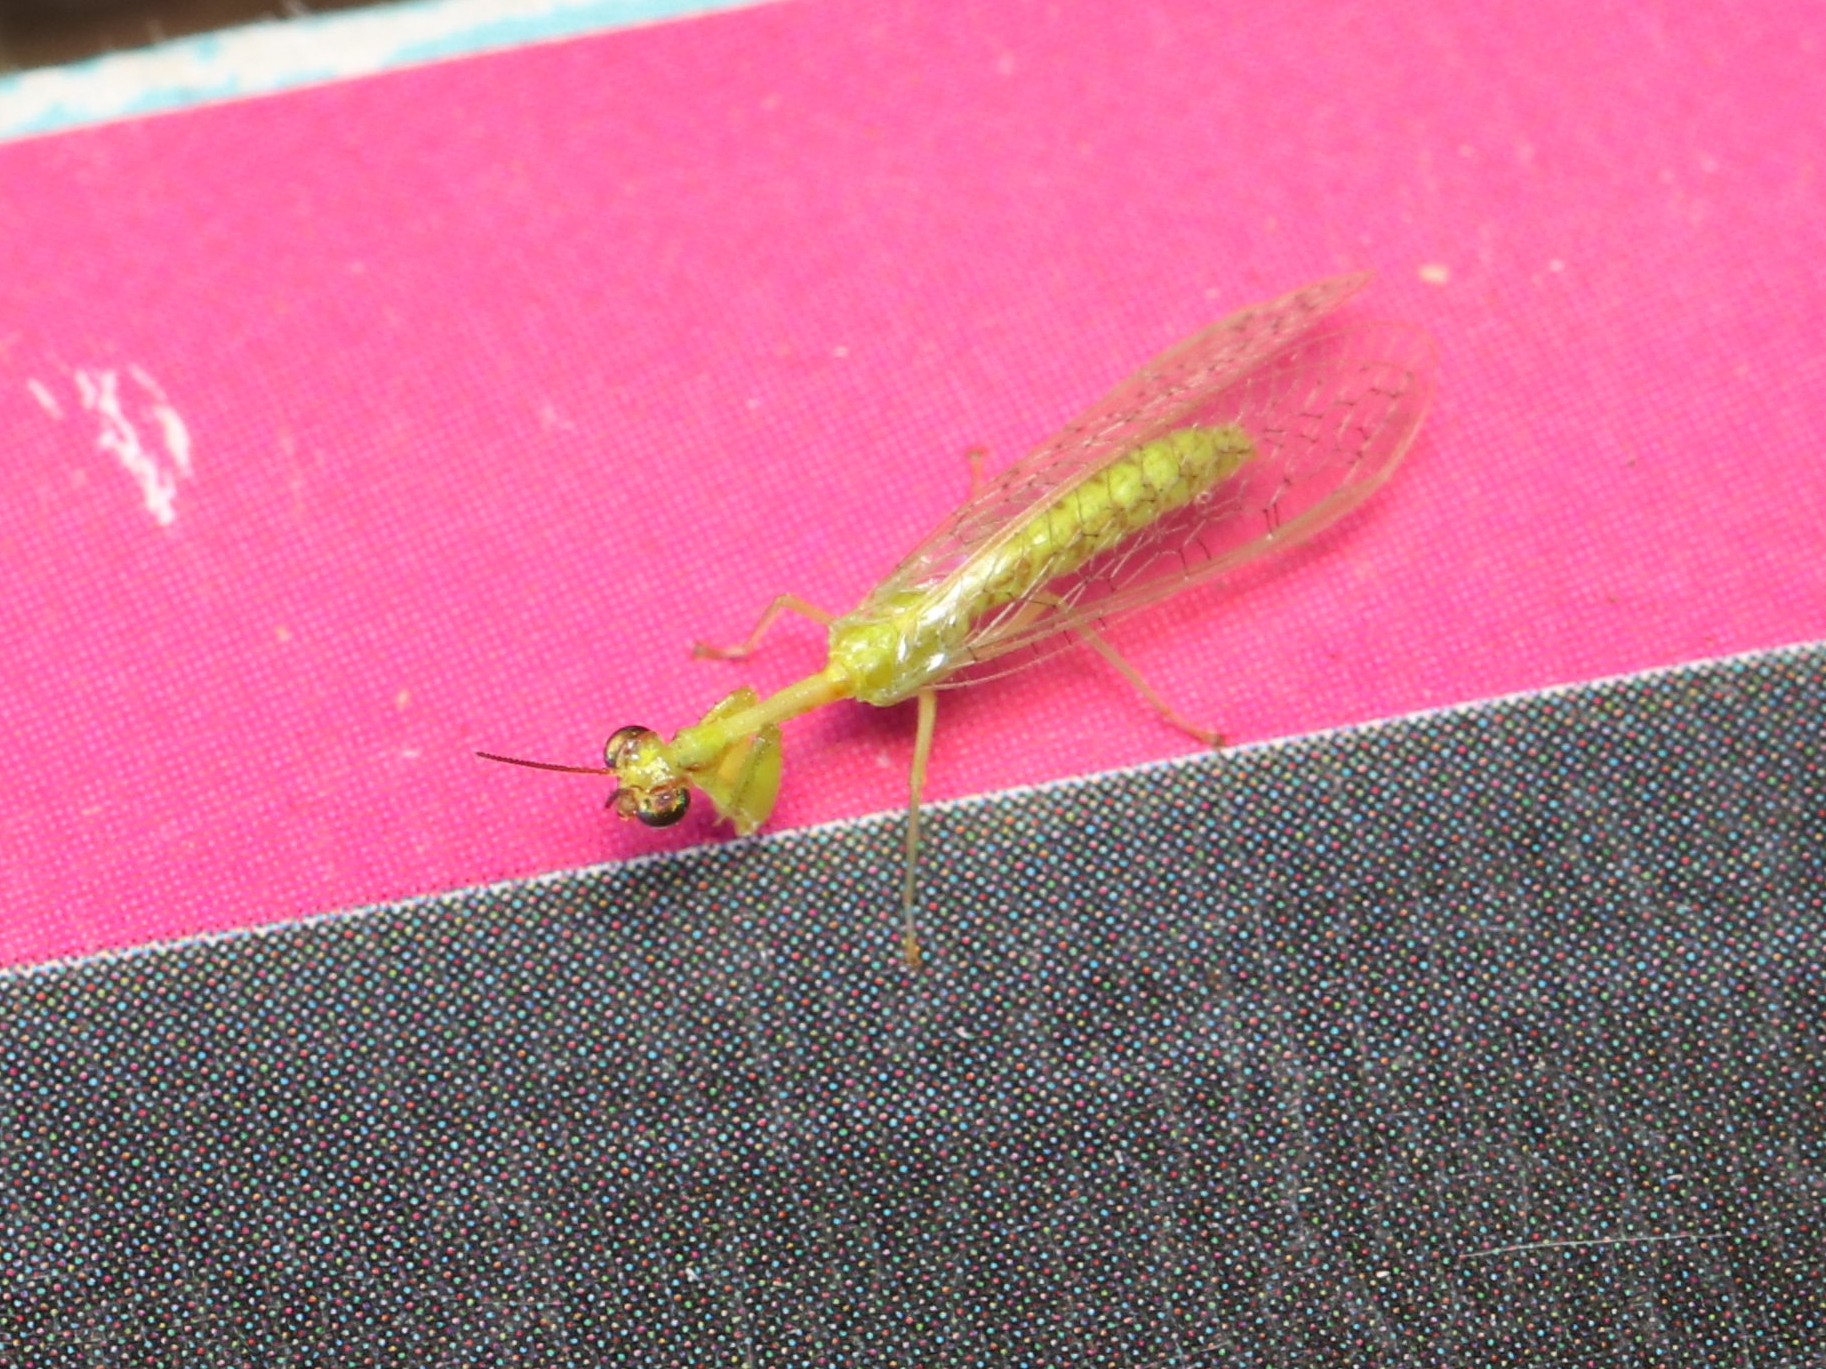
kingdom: Animalia
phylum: Arthropoda
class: Insecta
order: Neuroptera
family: Mantispidae
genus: Zeugomantispa
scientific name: Zeugomantispa minuta
